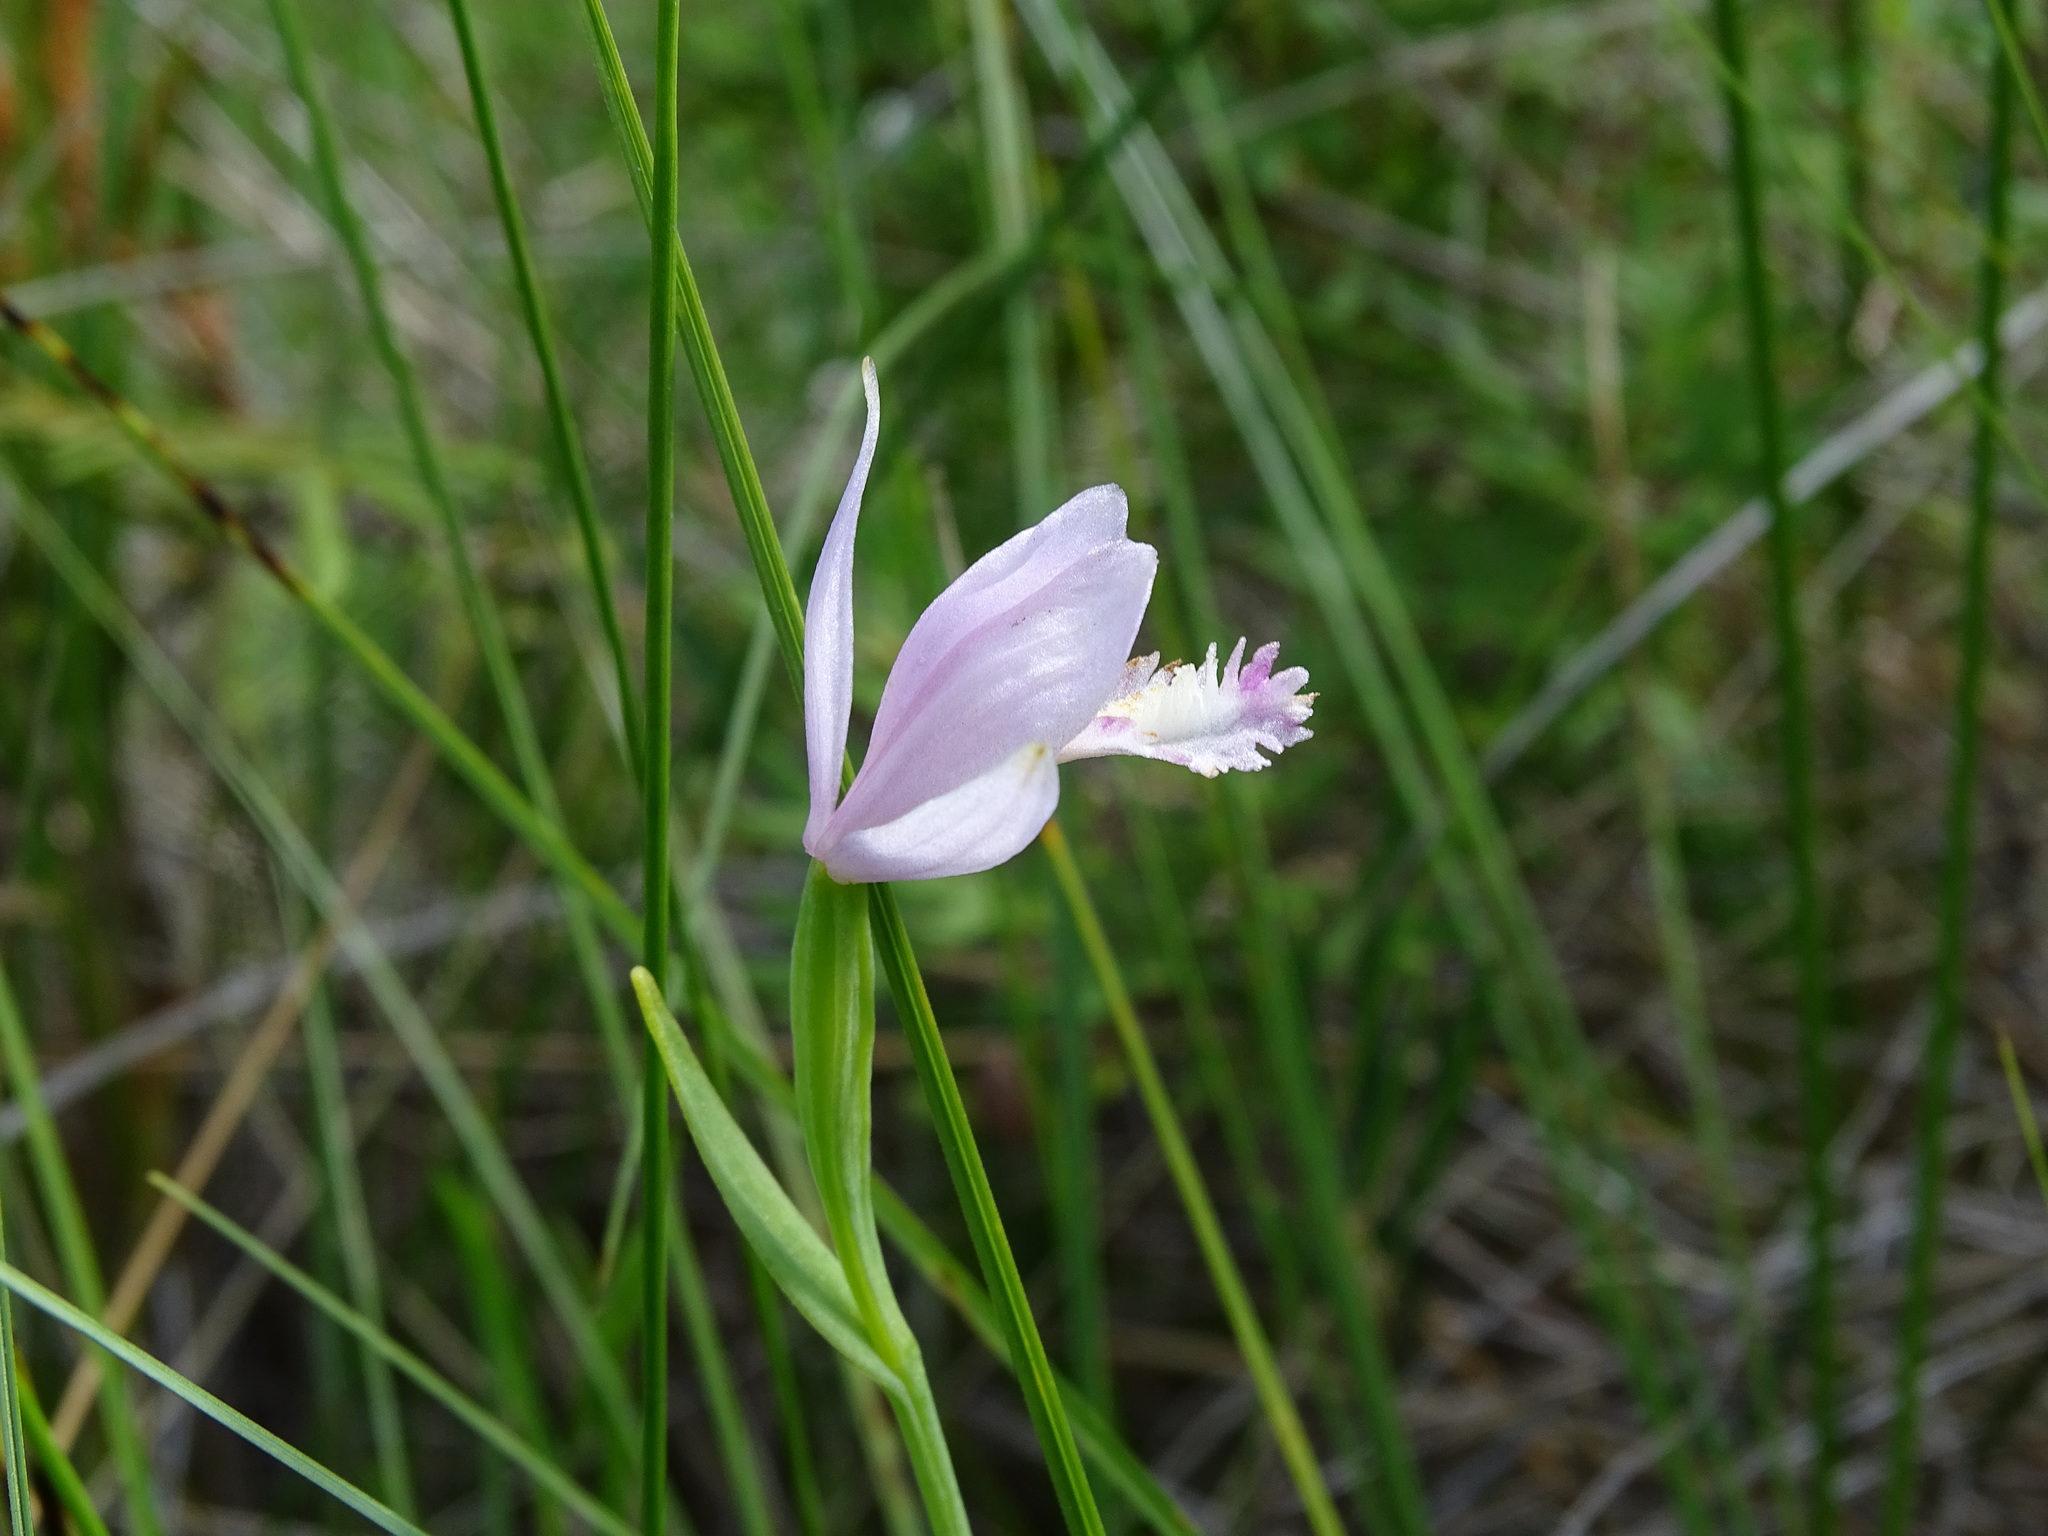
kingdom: Plantae
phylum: Tracheophyta
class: Liliopsida
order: Asparagales
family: Orchidaceae
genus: Pogonia
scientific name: Pogonia ophioglossoides
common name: Rose pogonia
